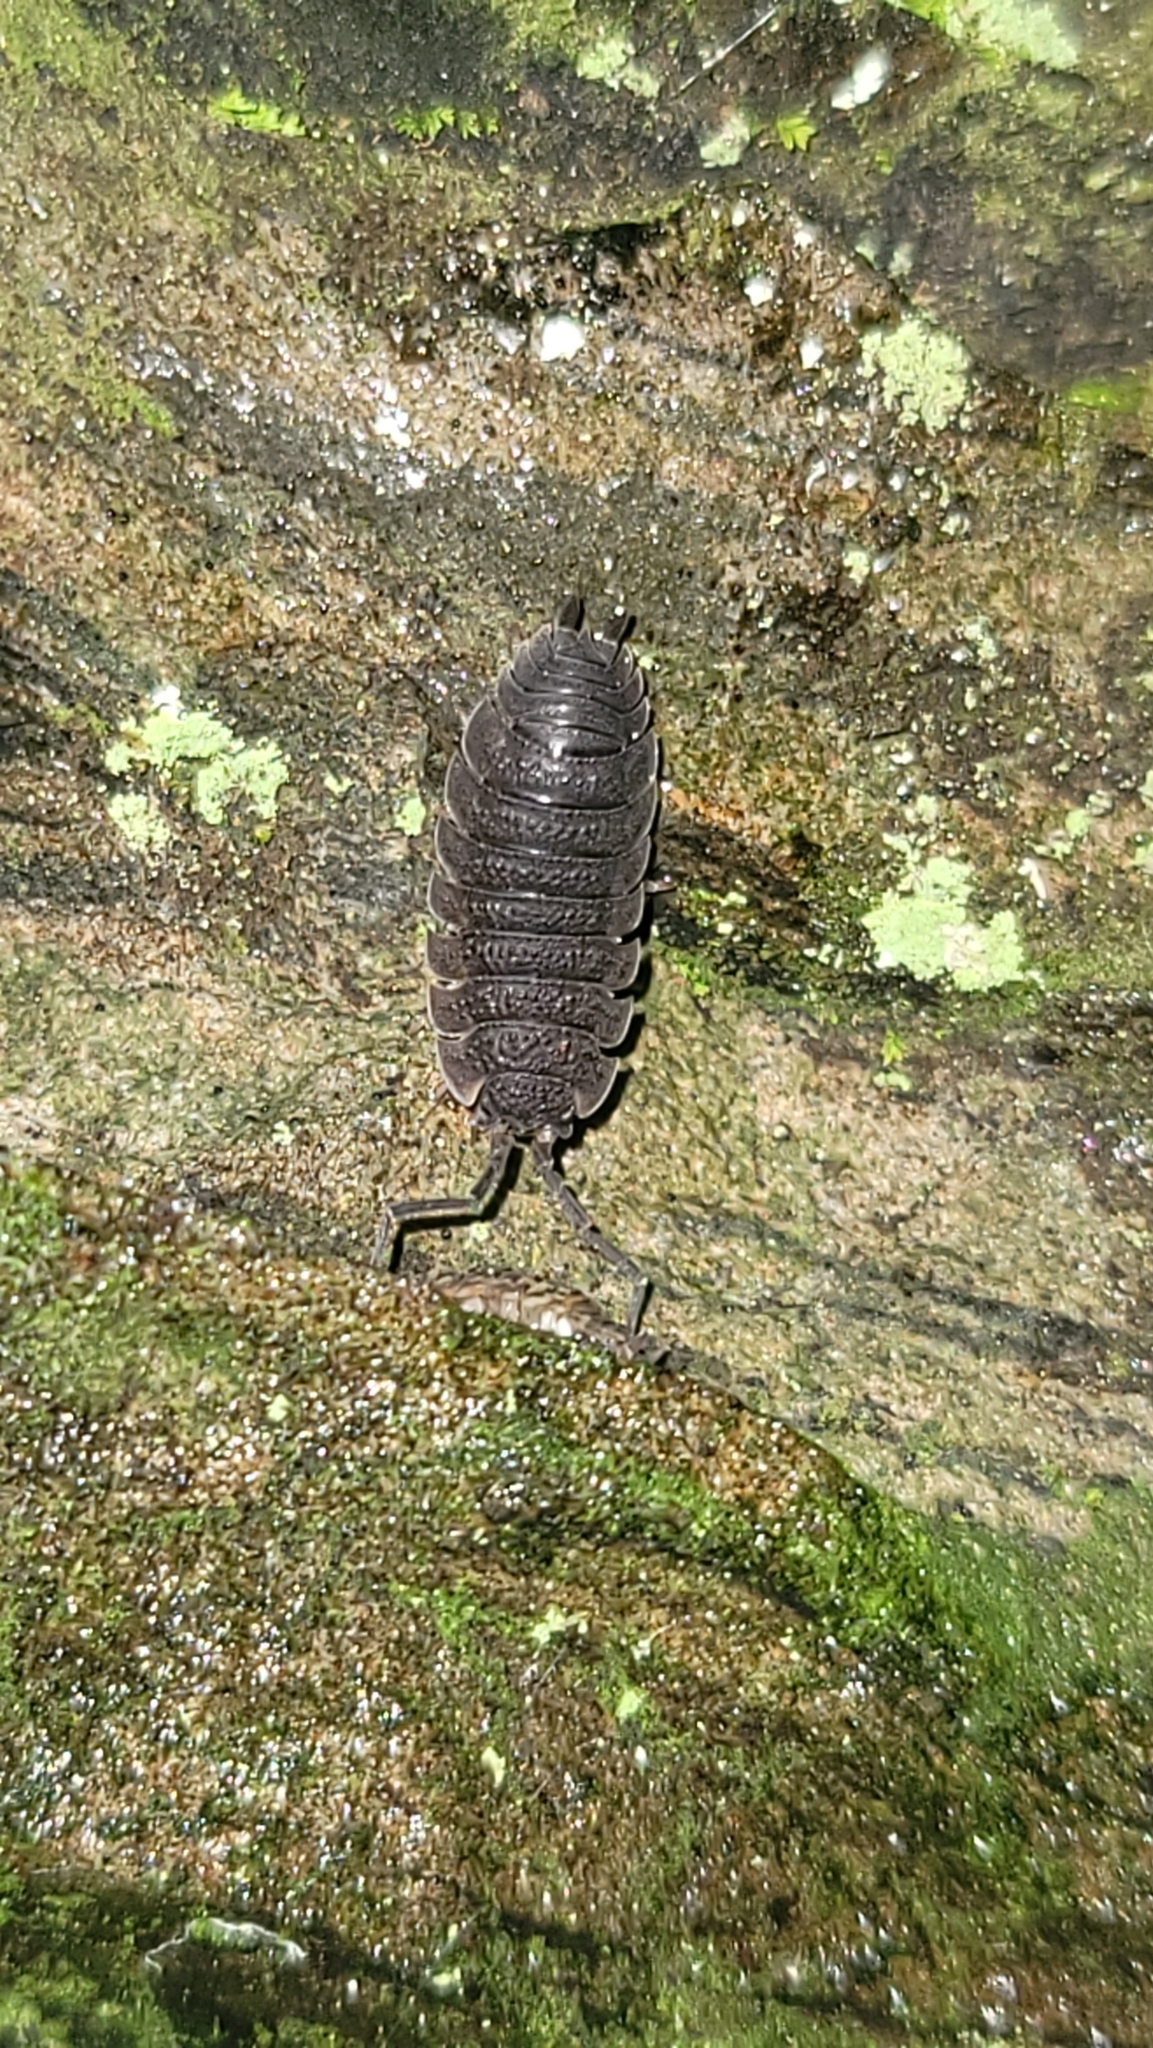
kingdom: Animalia
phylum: Arthropoda
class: Malacostraca
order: Isopoda
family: Porcellionidae
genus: Porcellio
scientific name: Porcellio scaber
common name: Common rough woodlouse
